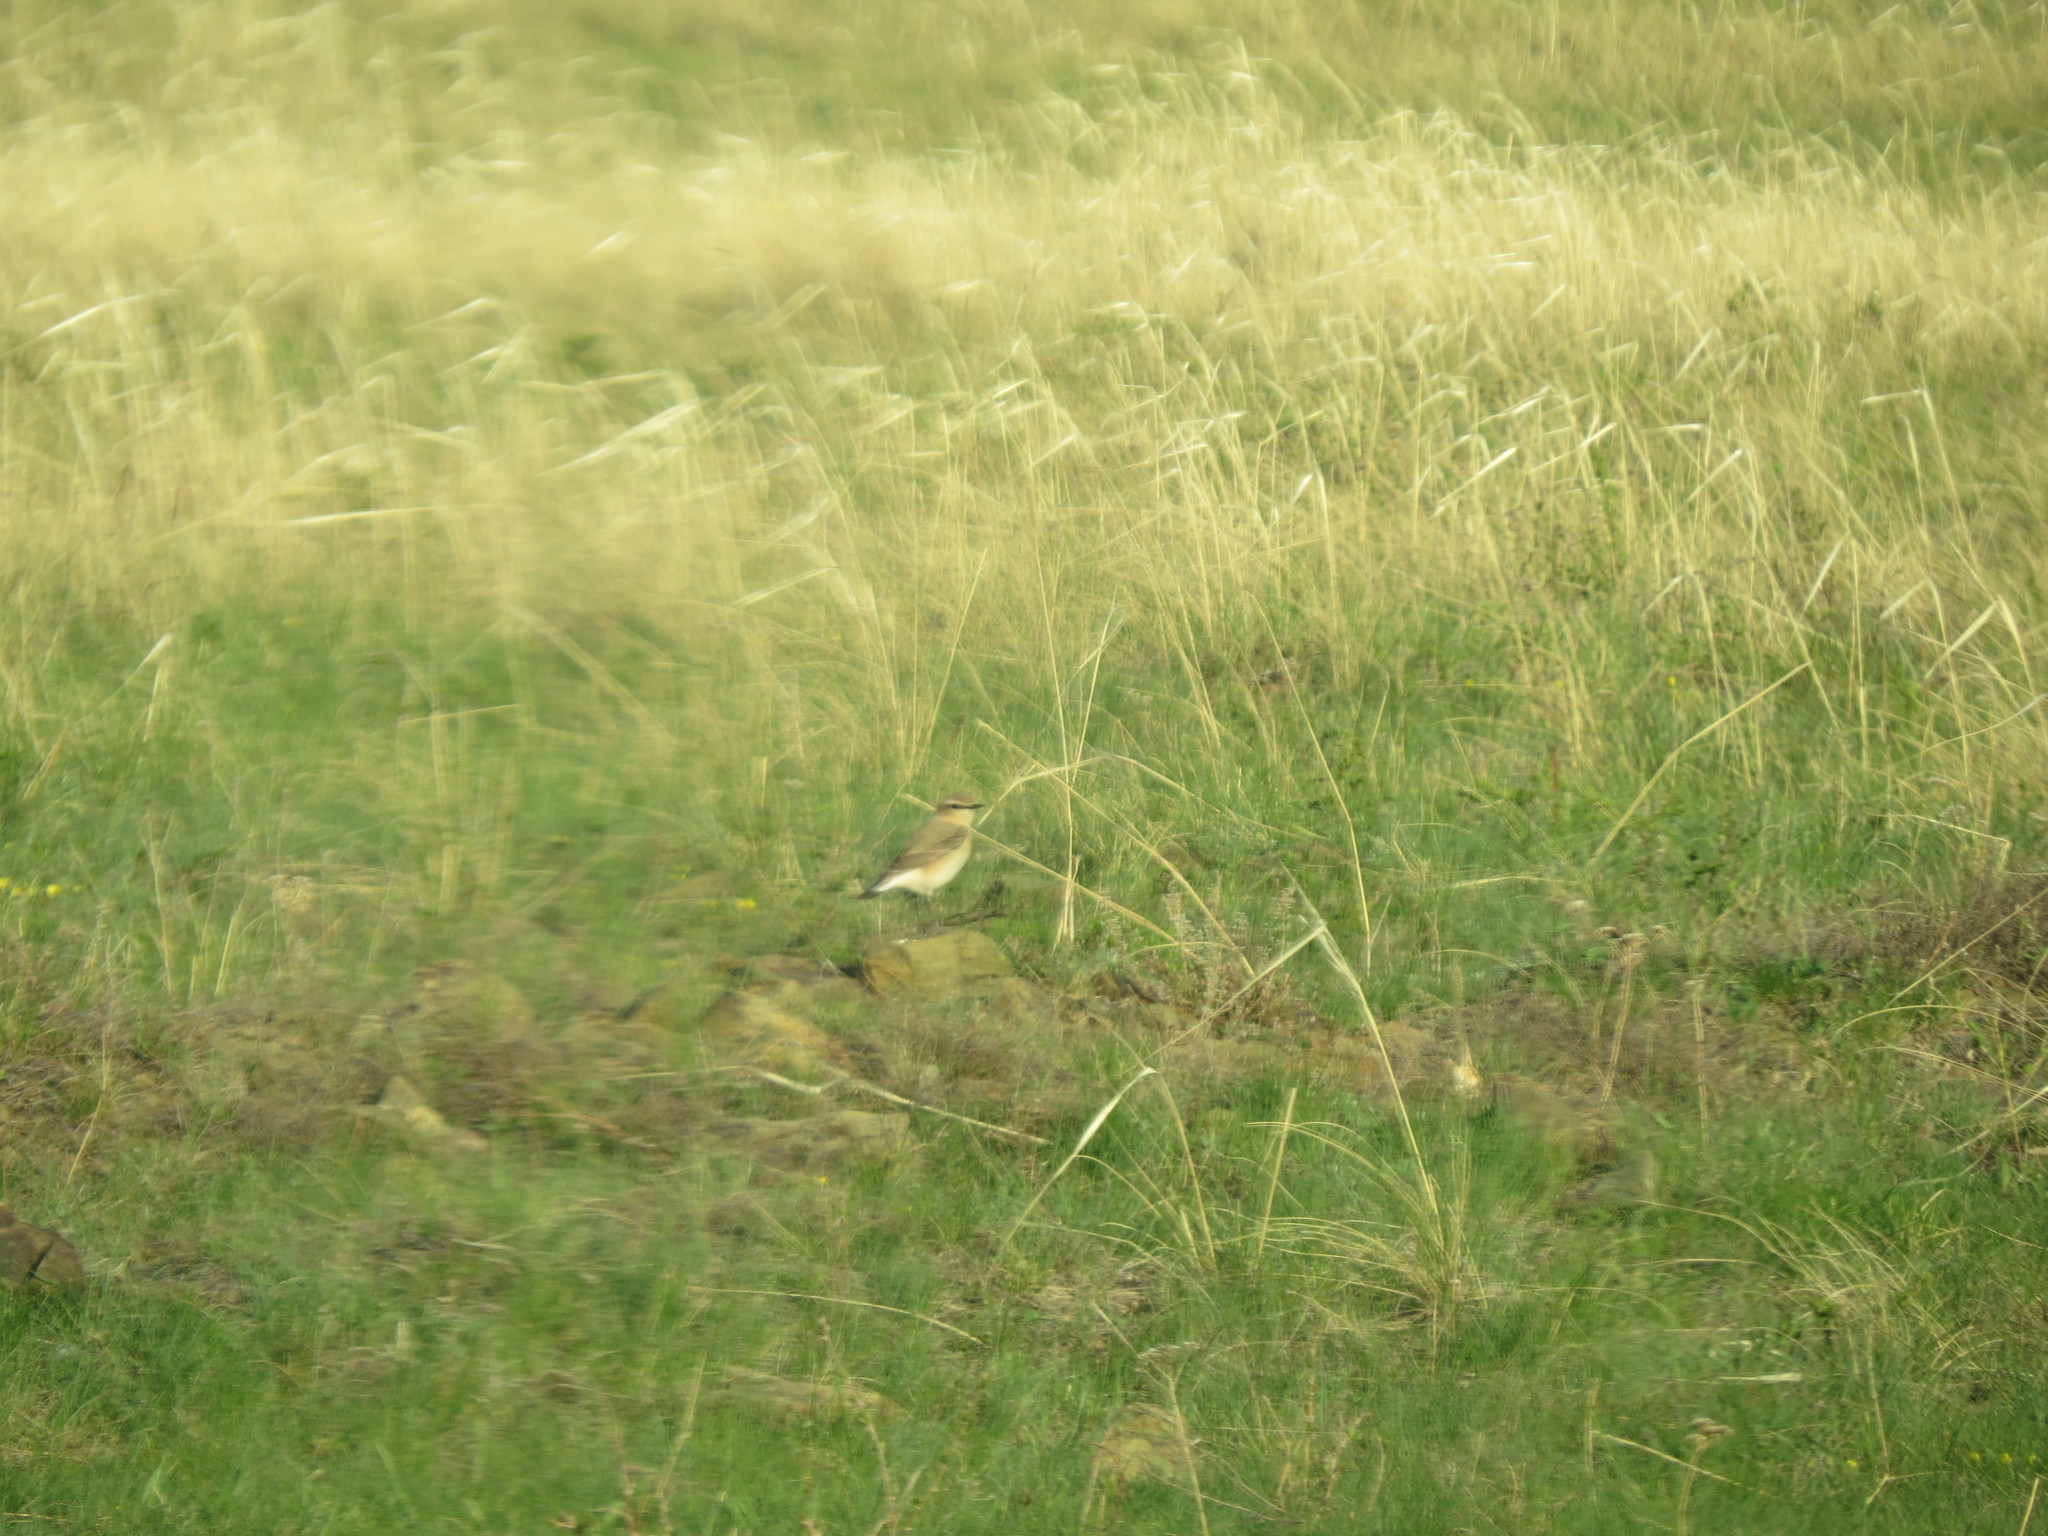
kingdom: Animalia
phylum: Chordata
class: Aves
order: Passeriformes
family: Muscicapidae
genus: Oenanthe
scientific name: Oenanthe oenanthe
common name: Northern wheatear
